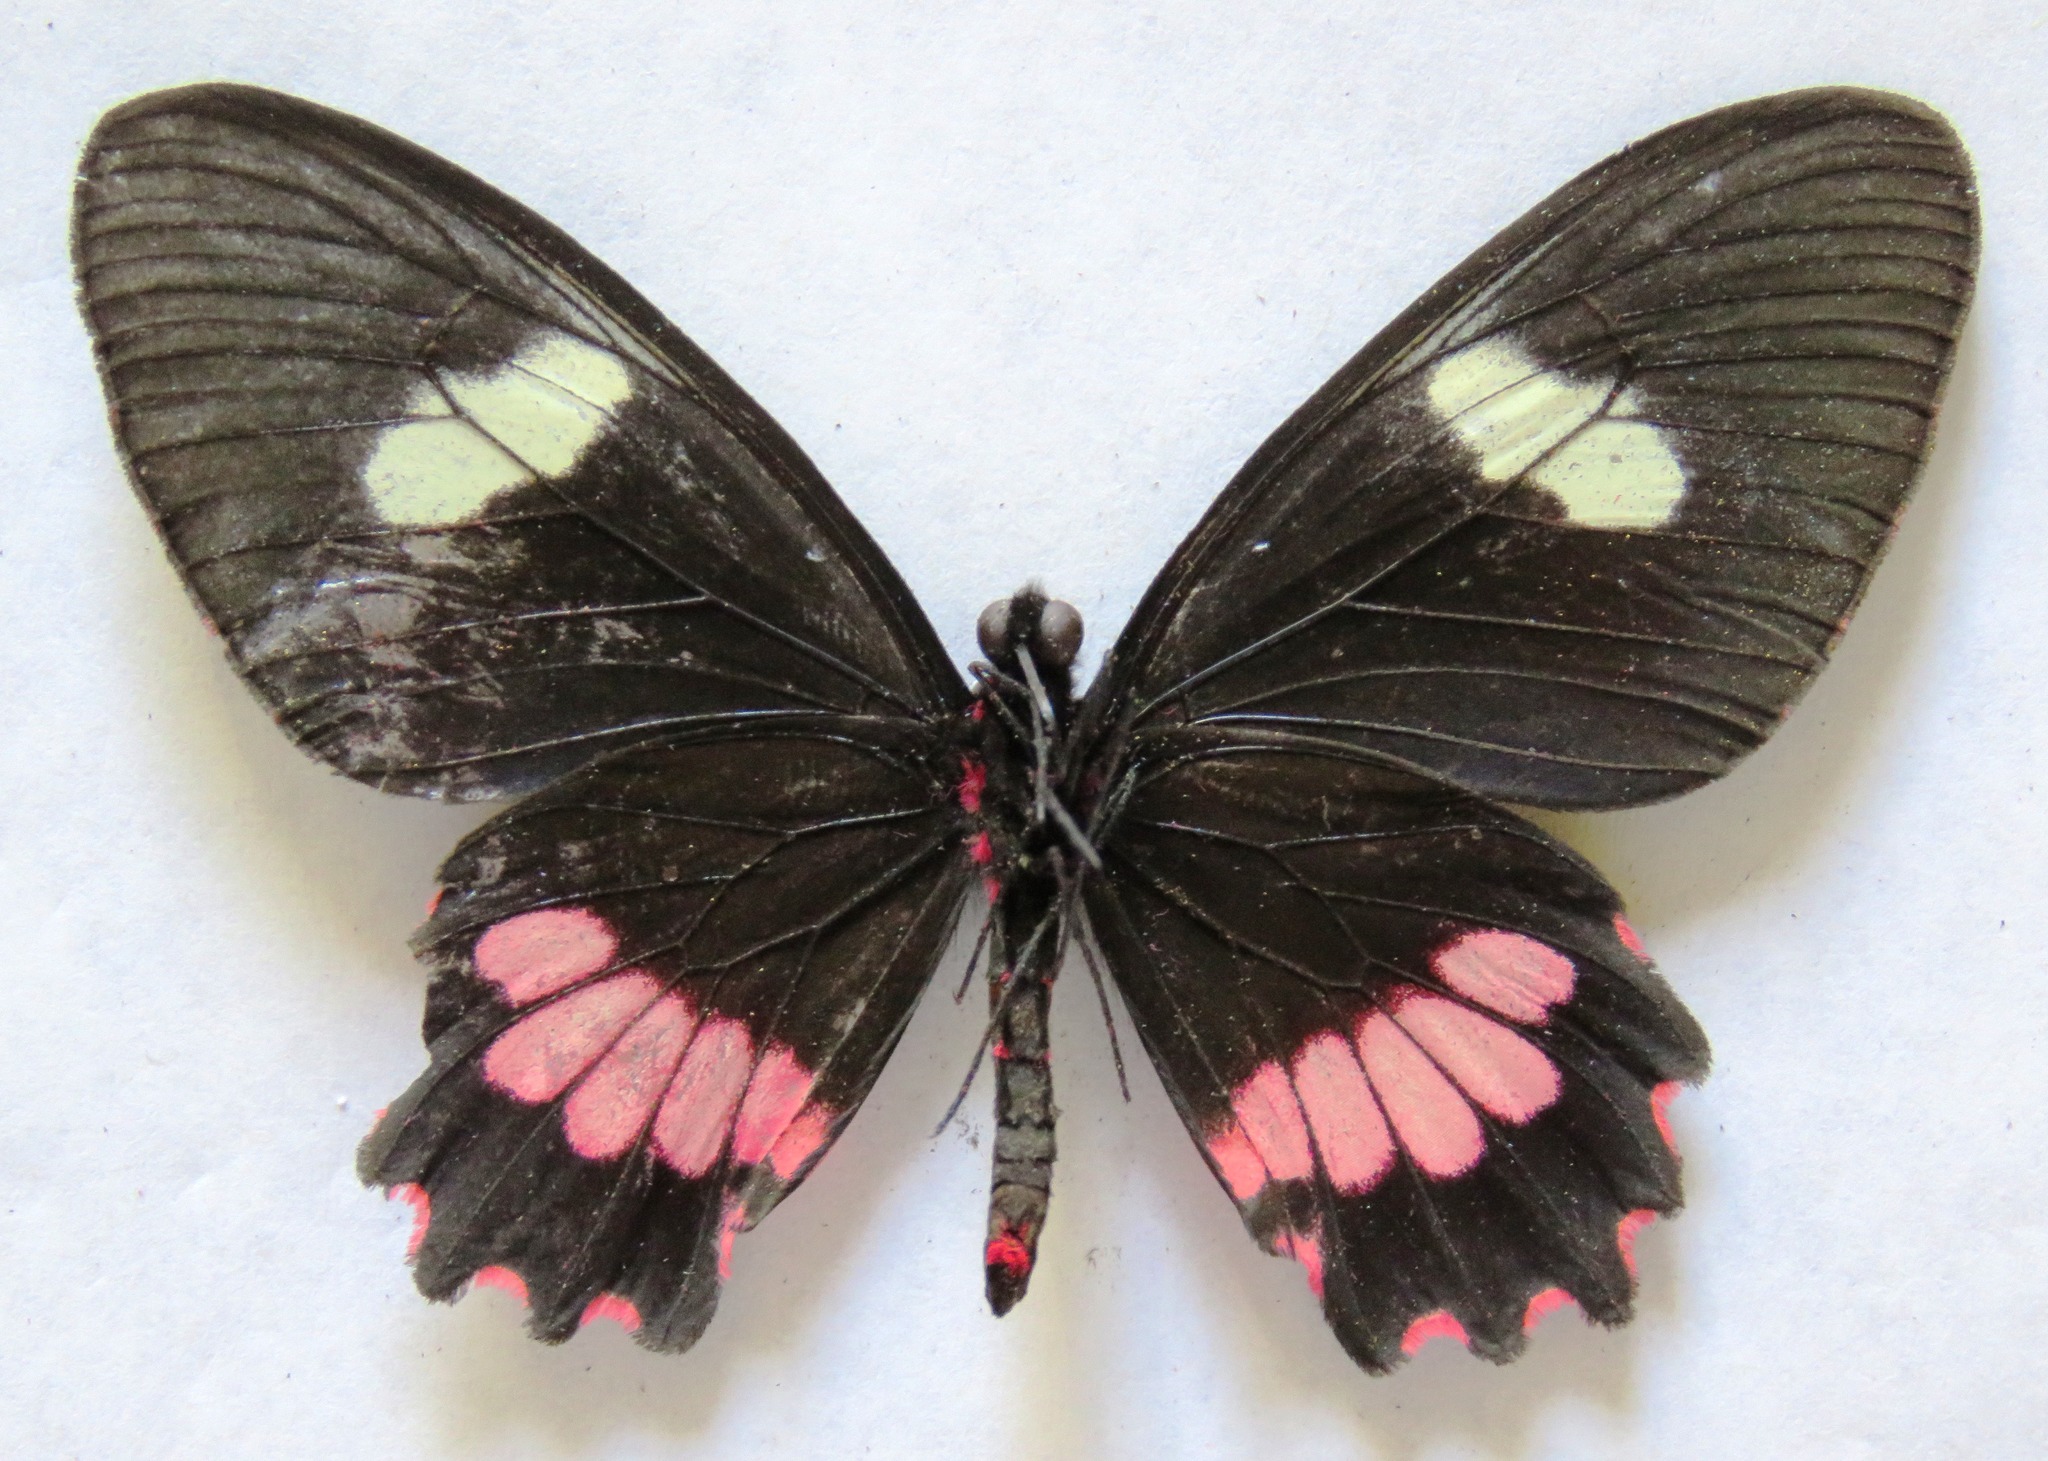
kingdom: Animalia
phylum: Arthropoda
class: Insecta
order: Lepidoptera
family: Papilionidae
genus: Parides
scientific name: Parides eurimedes
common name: True cattleheart
